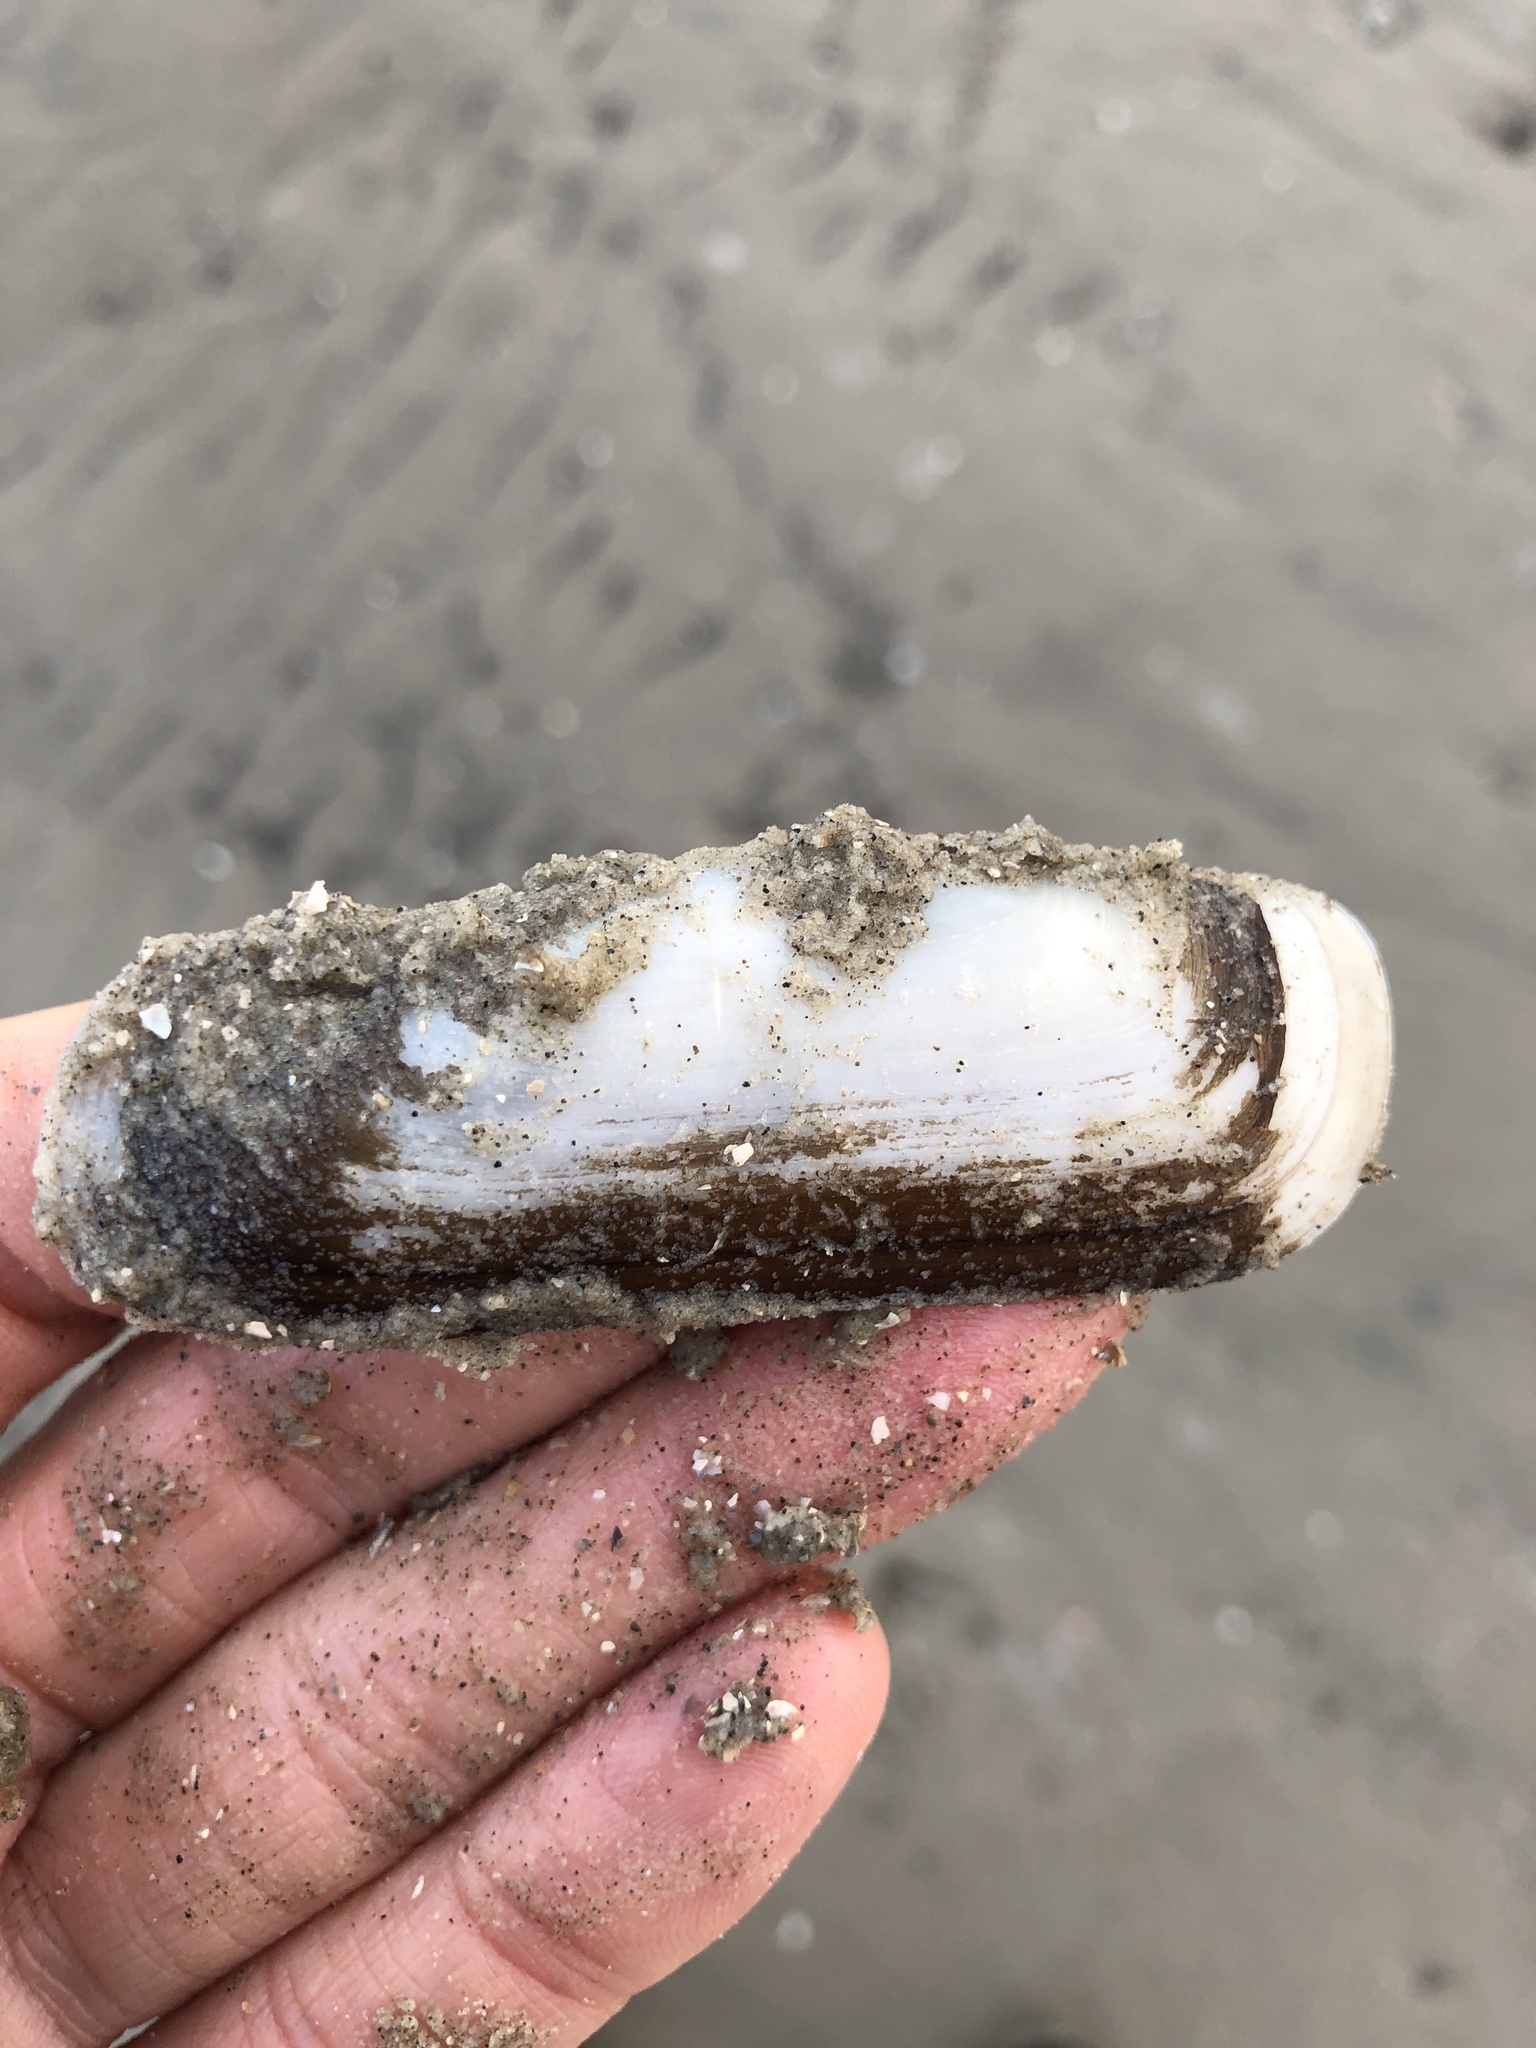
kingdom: Animalia
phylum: Mollusca
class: Bivalvia
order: Cardiida
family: Solecurtidae
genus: Tagelus
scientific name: Tagelus plebeius
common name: Stout tagelus
